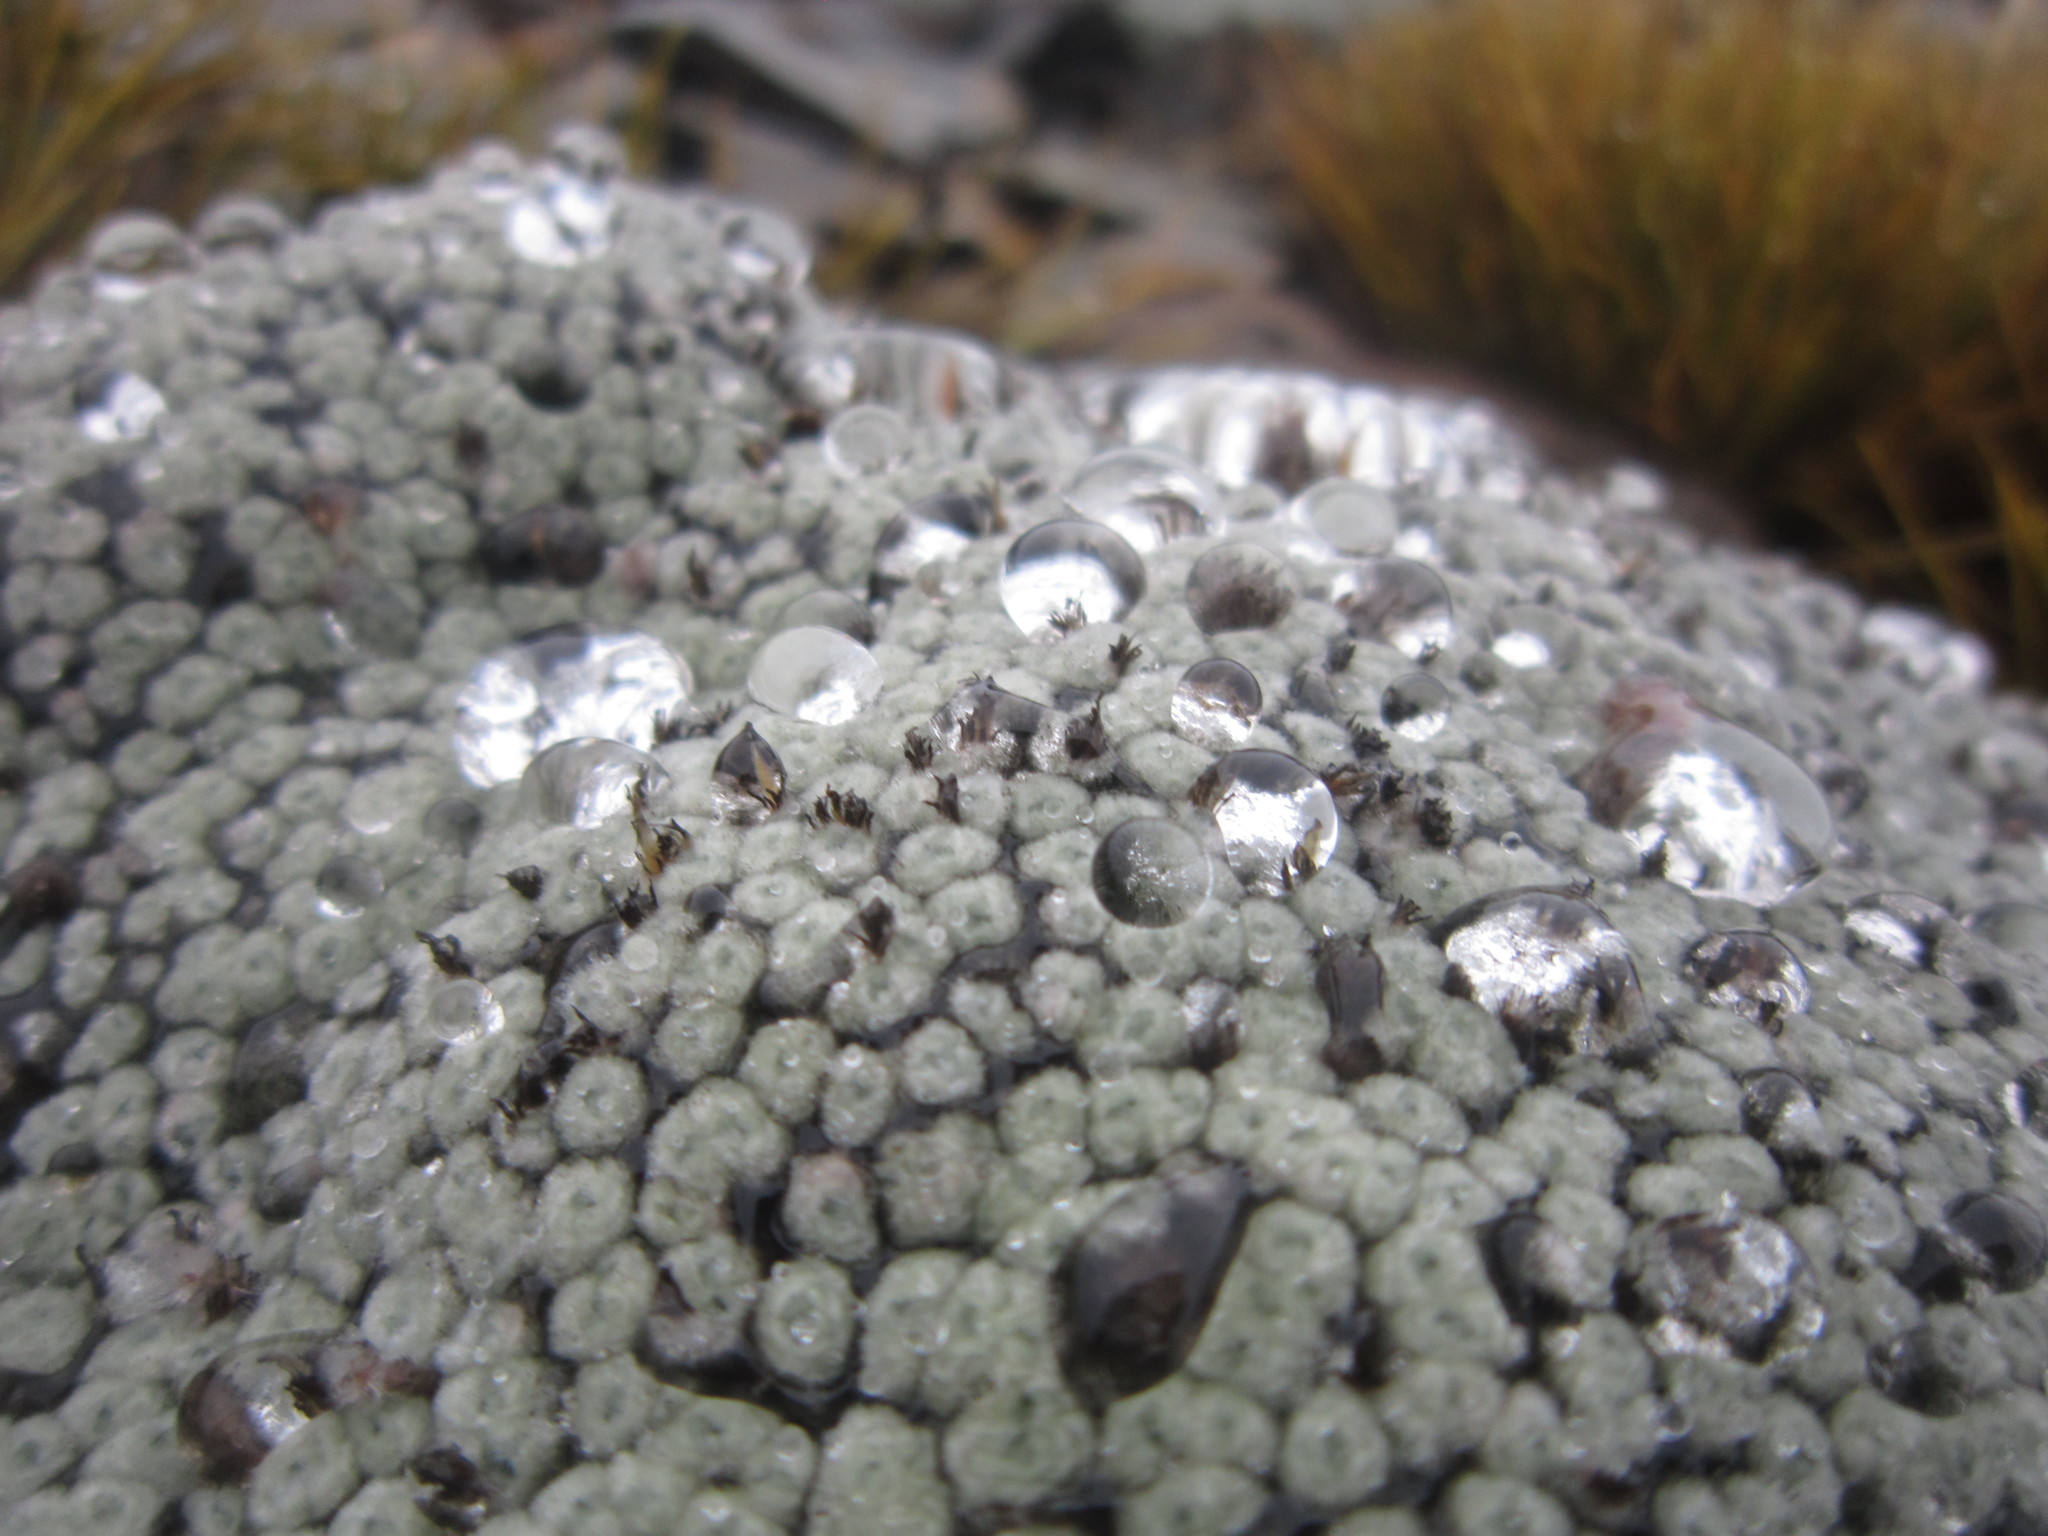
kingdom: Plantae
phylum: Tracheophyta
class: Magnoliopsida
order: Asterales
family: Asteraceae
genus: Raoulia
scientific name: Raoulia eximia
